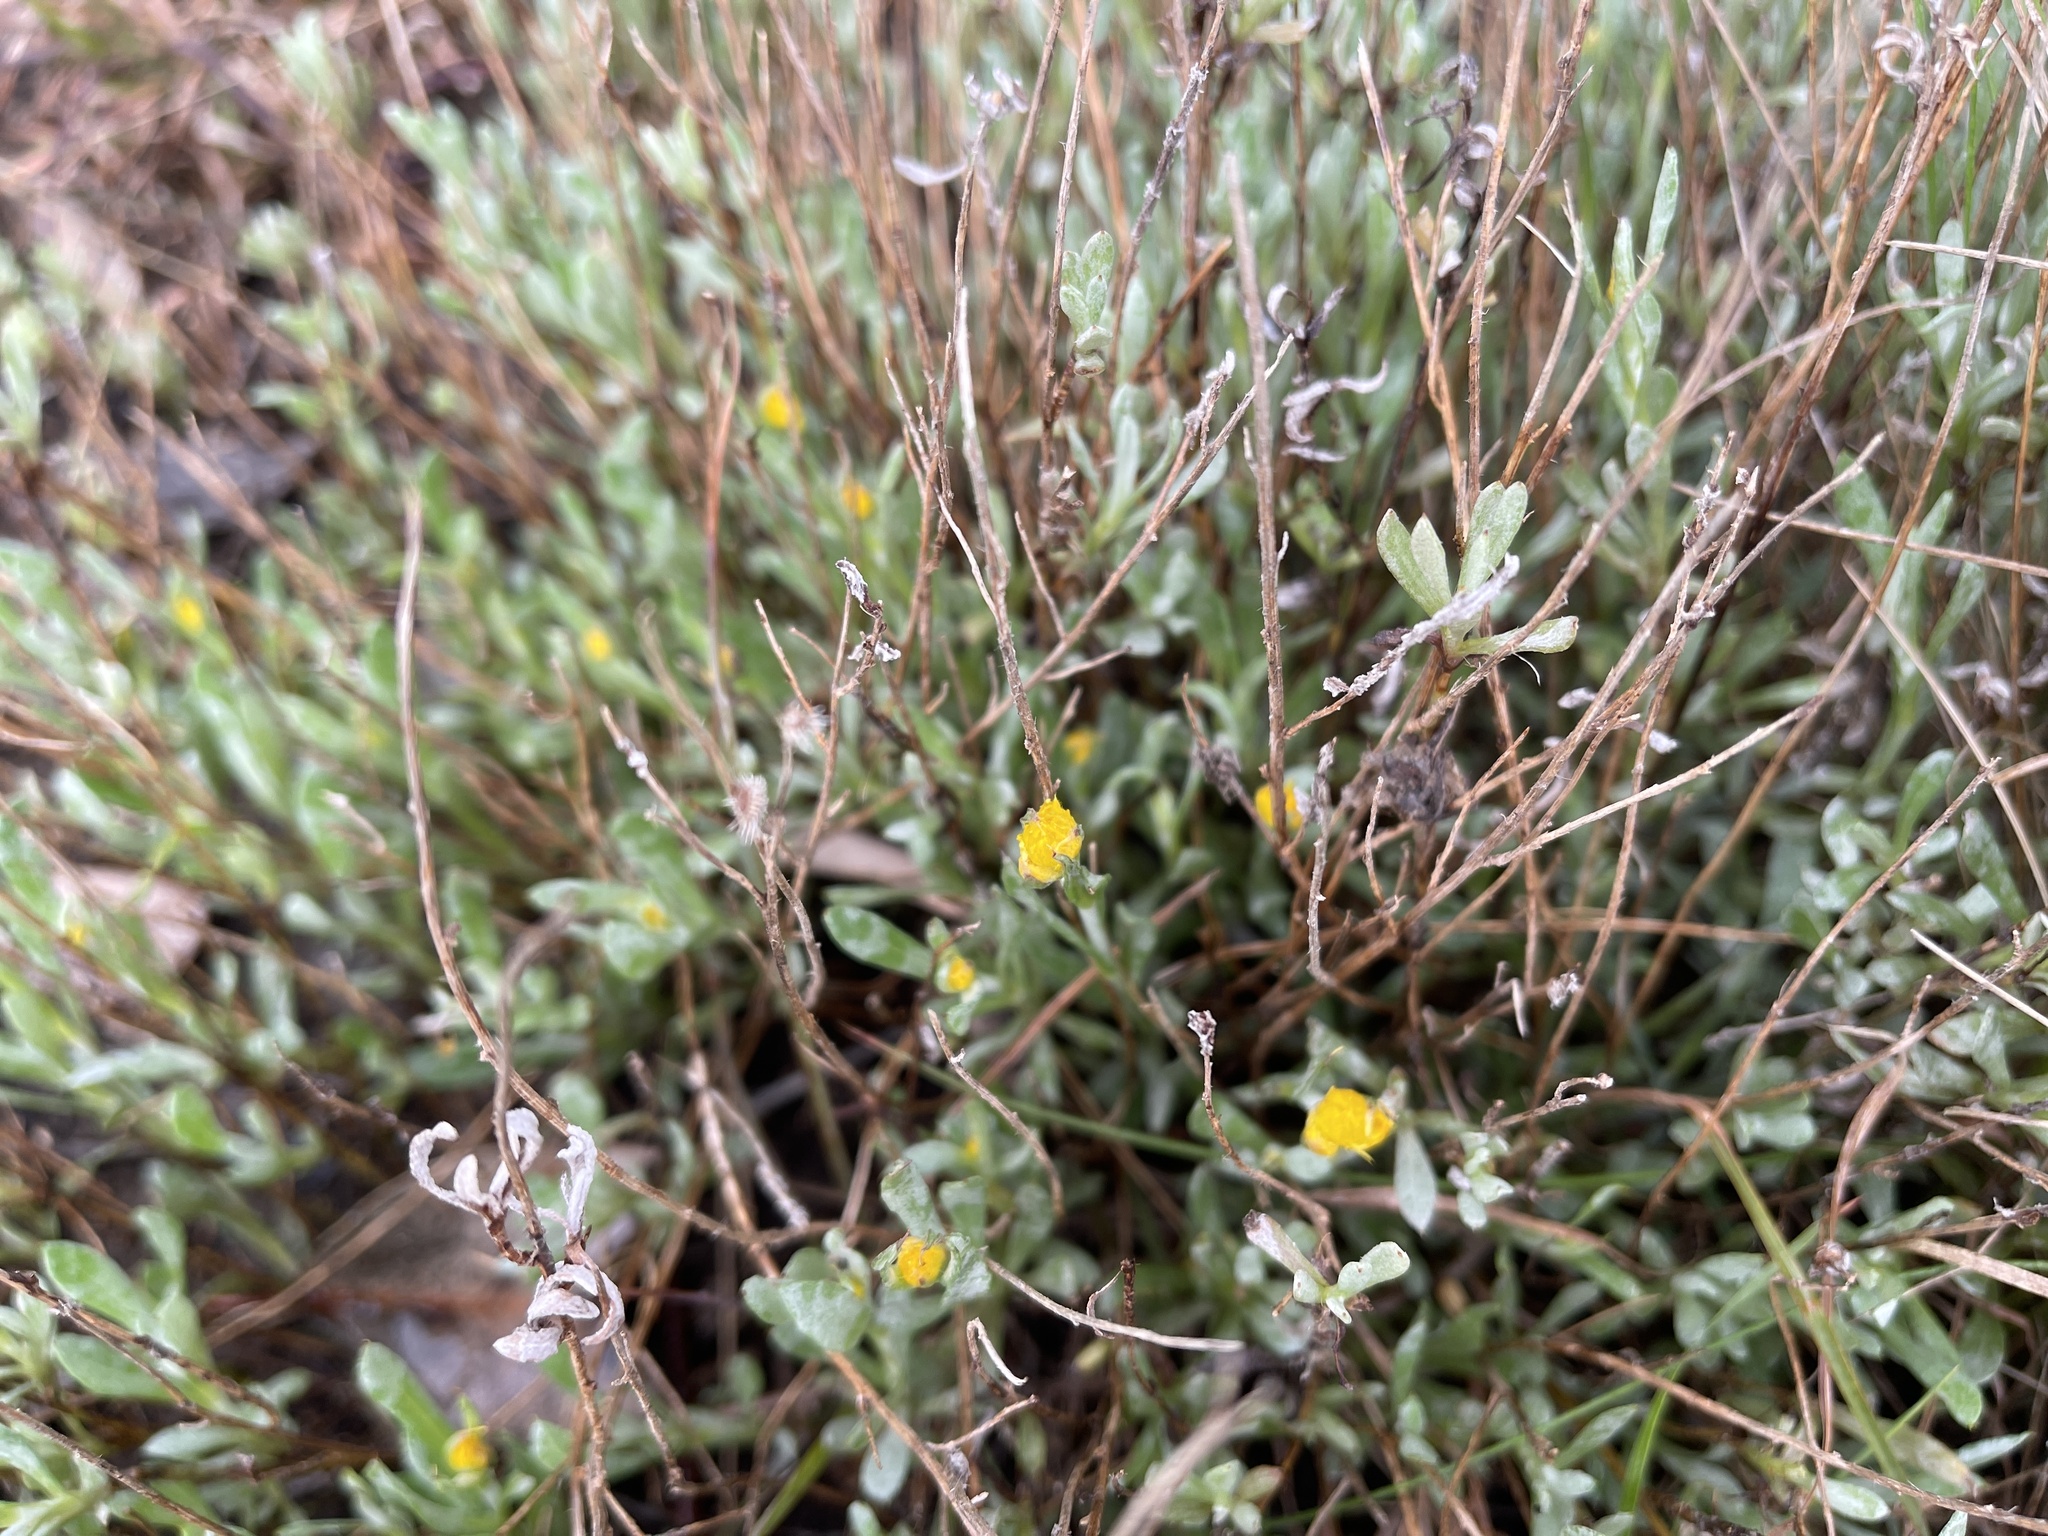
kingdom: Plantae
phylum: Tracheophyta
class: Magnoliopsida
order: Asterales
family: Asteraceae
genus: Chrysocephalum
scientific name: Chrysocephalum apiculatum
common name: Common everlasting
